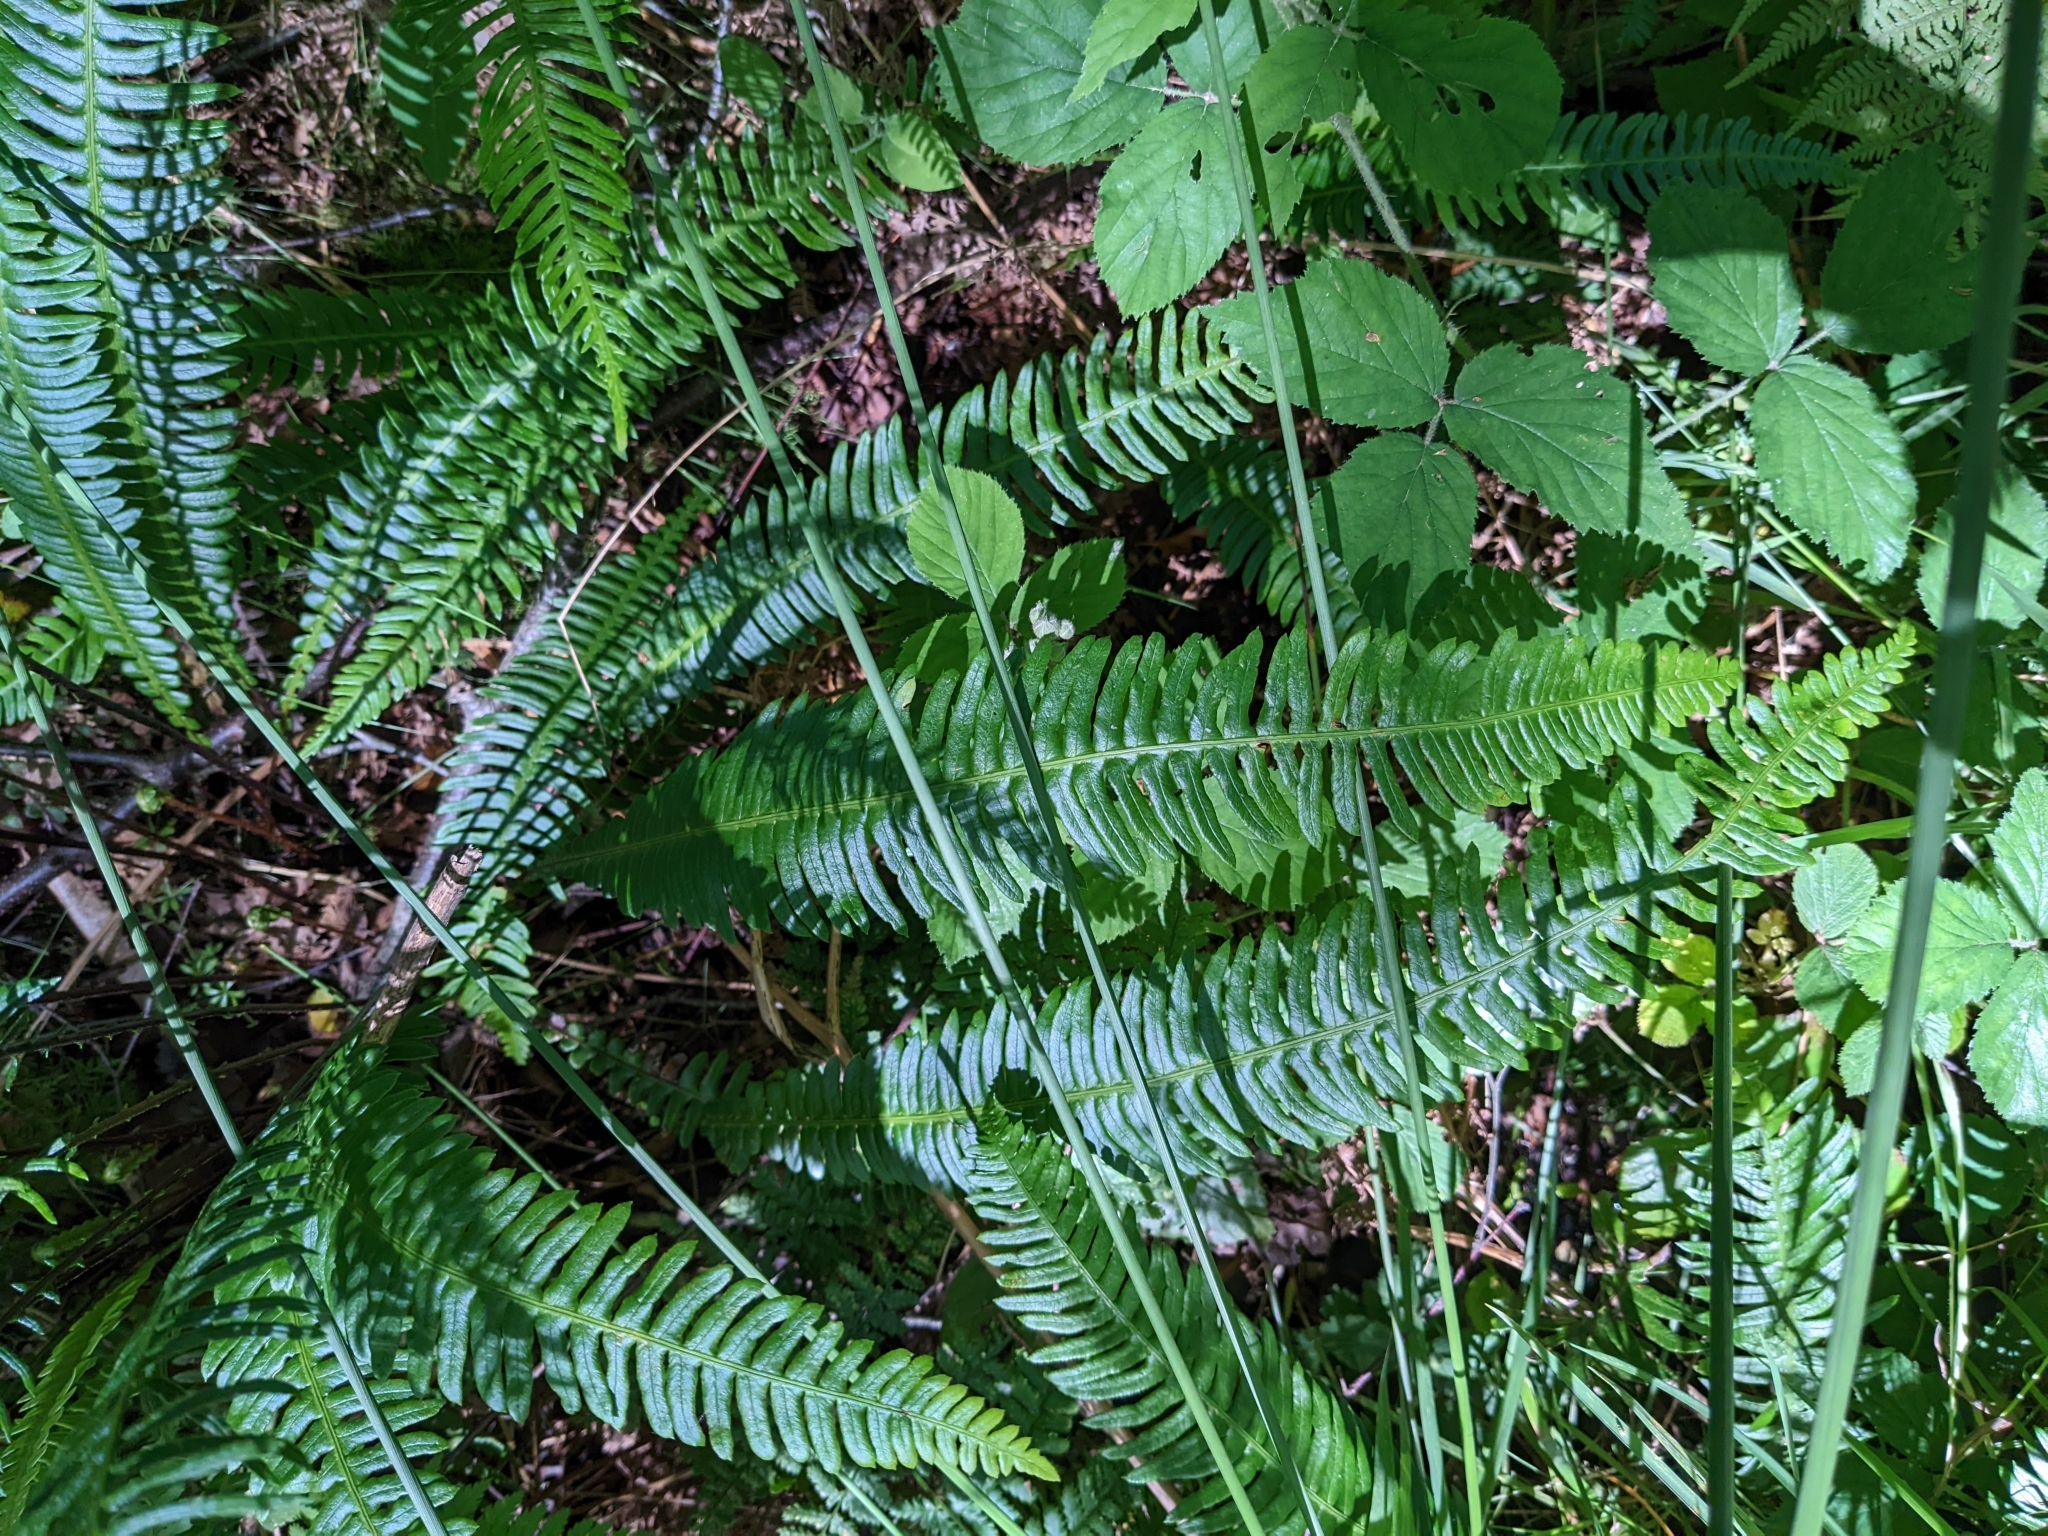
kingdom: Plantae
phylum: Tracheophyta
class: Polypodiopsida
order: Polypodiales
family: Blechnaceae
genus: Struthiopteris
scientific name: Struthiopteris spicant
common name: Deer fern
